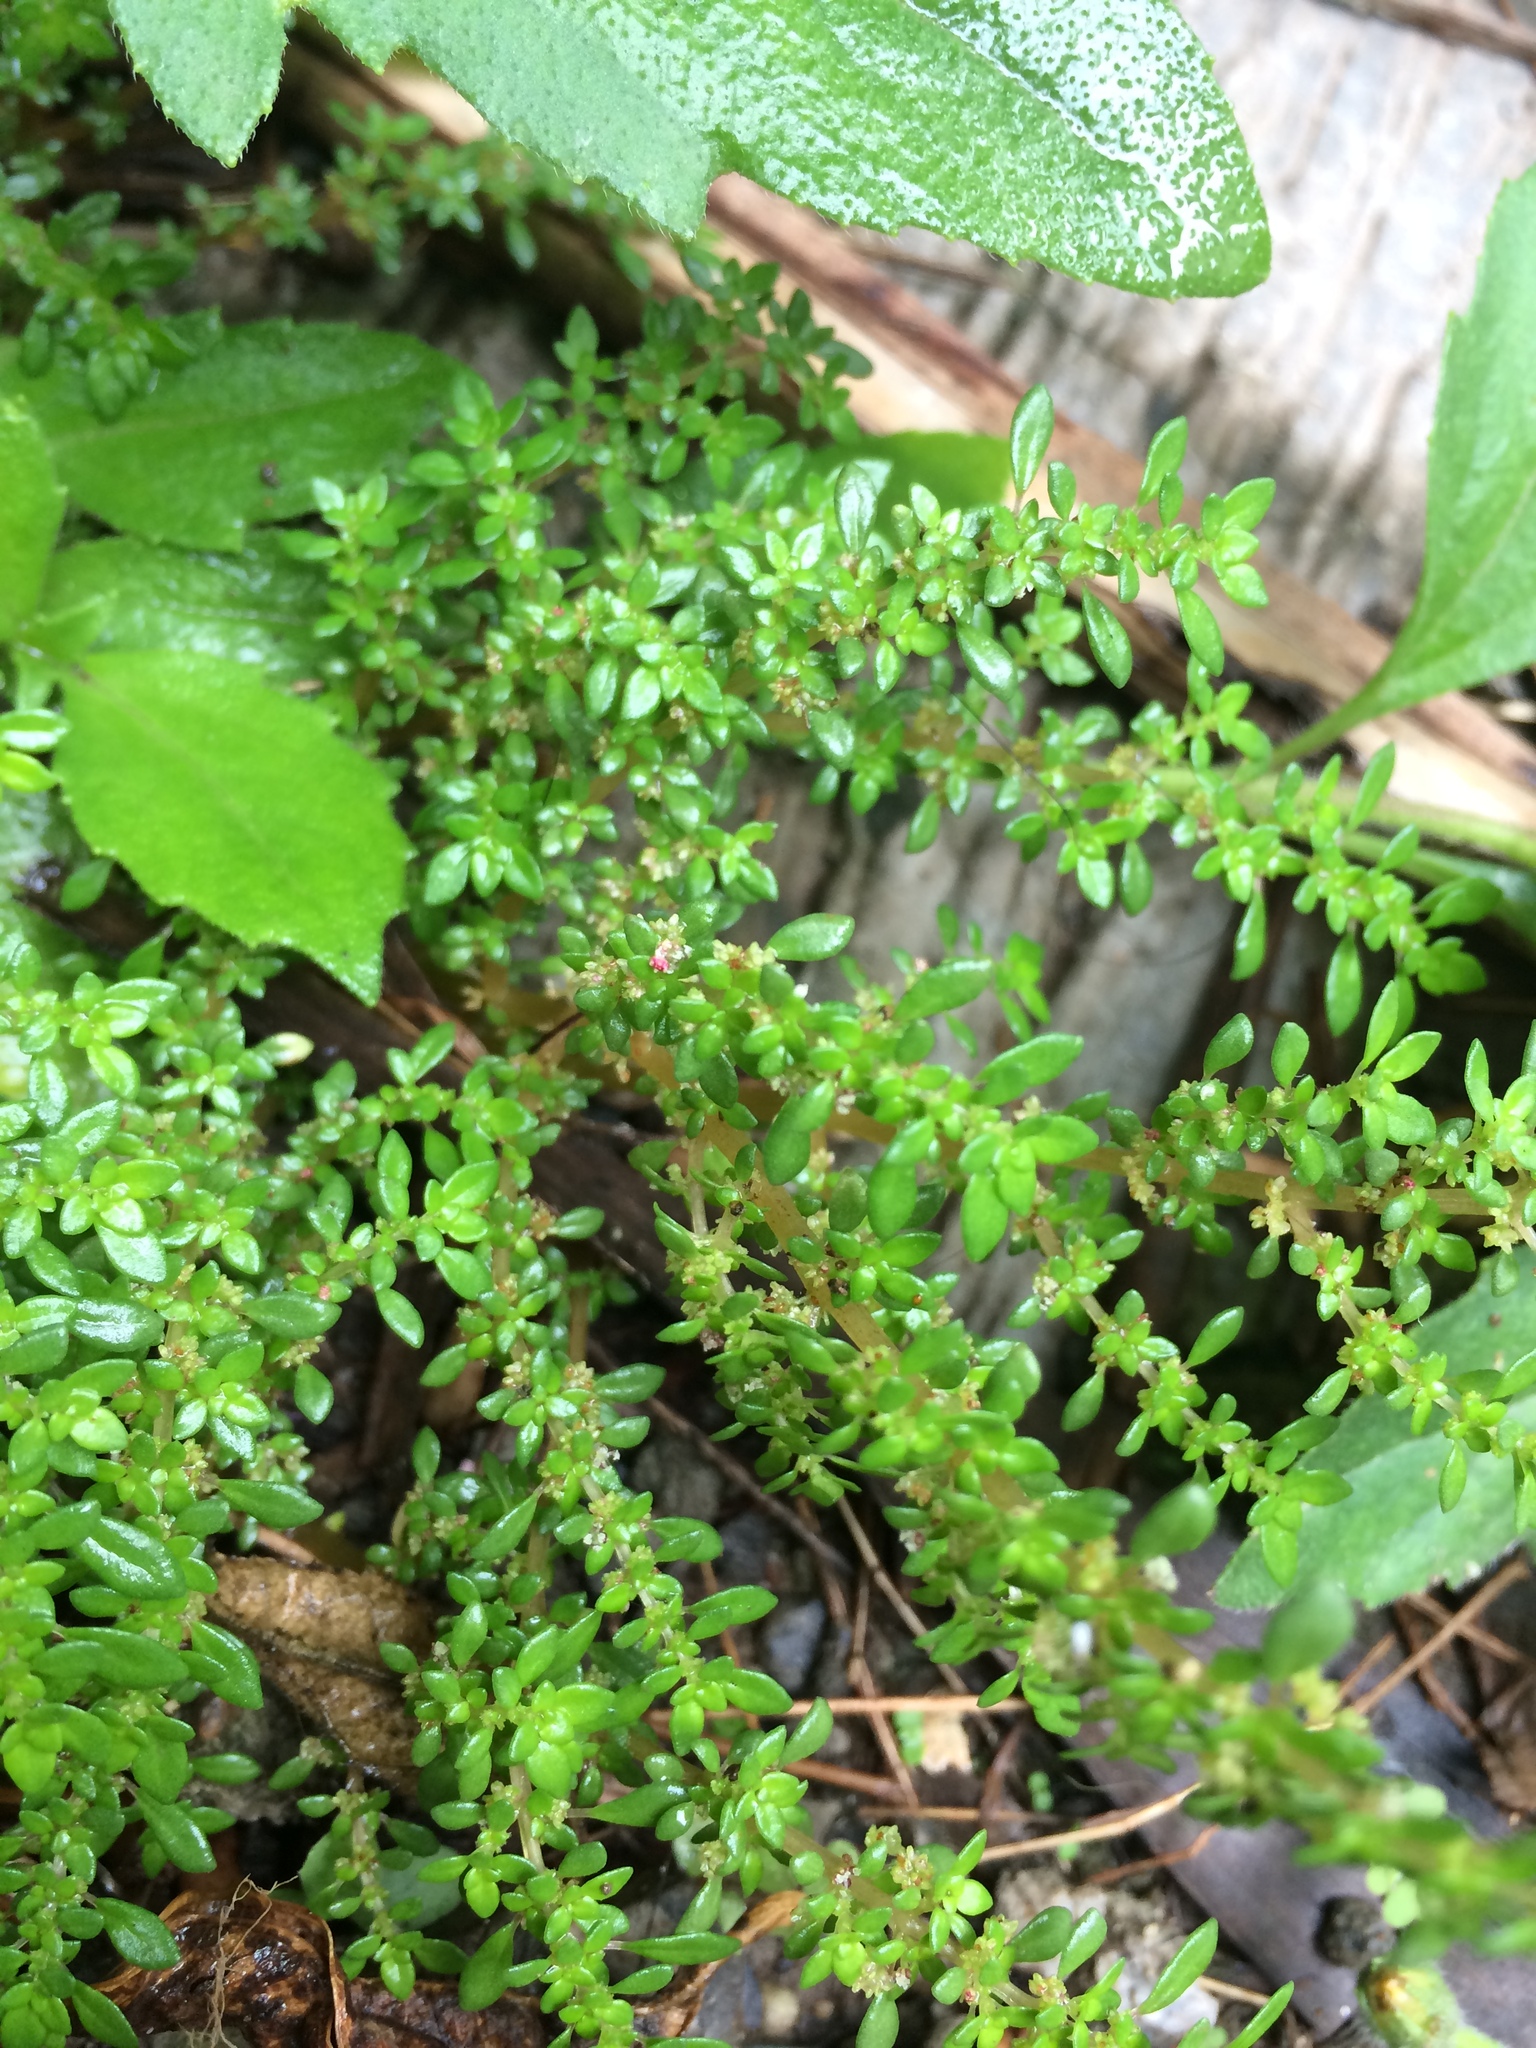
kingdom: Plantae
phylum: Tracheophyta
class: Magnoliopsida
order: Rosales
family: Urticaceae
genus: Pilea
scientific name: Pilea microphylla
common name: Artillery-plant
